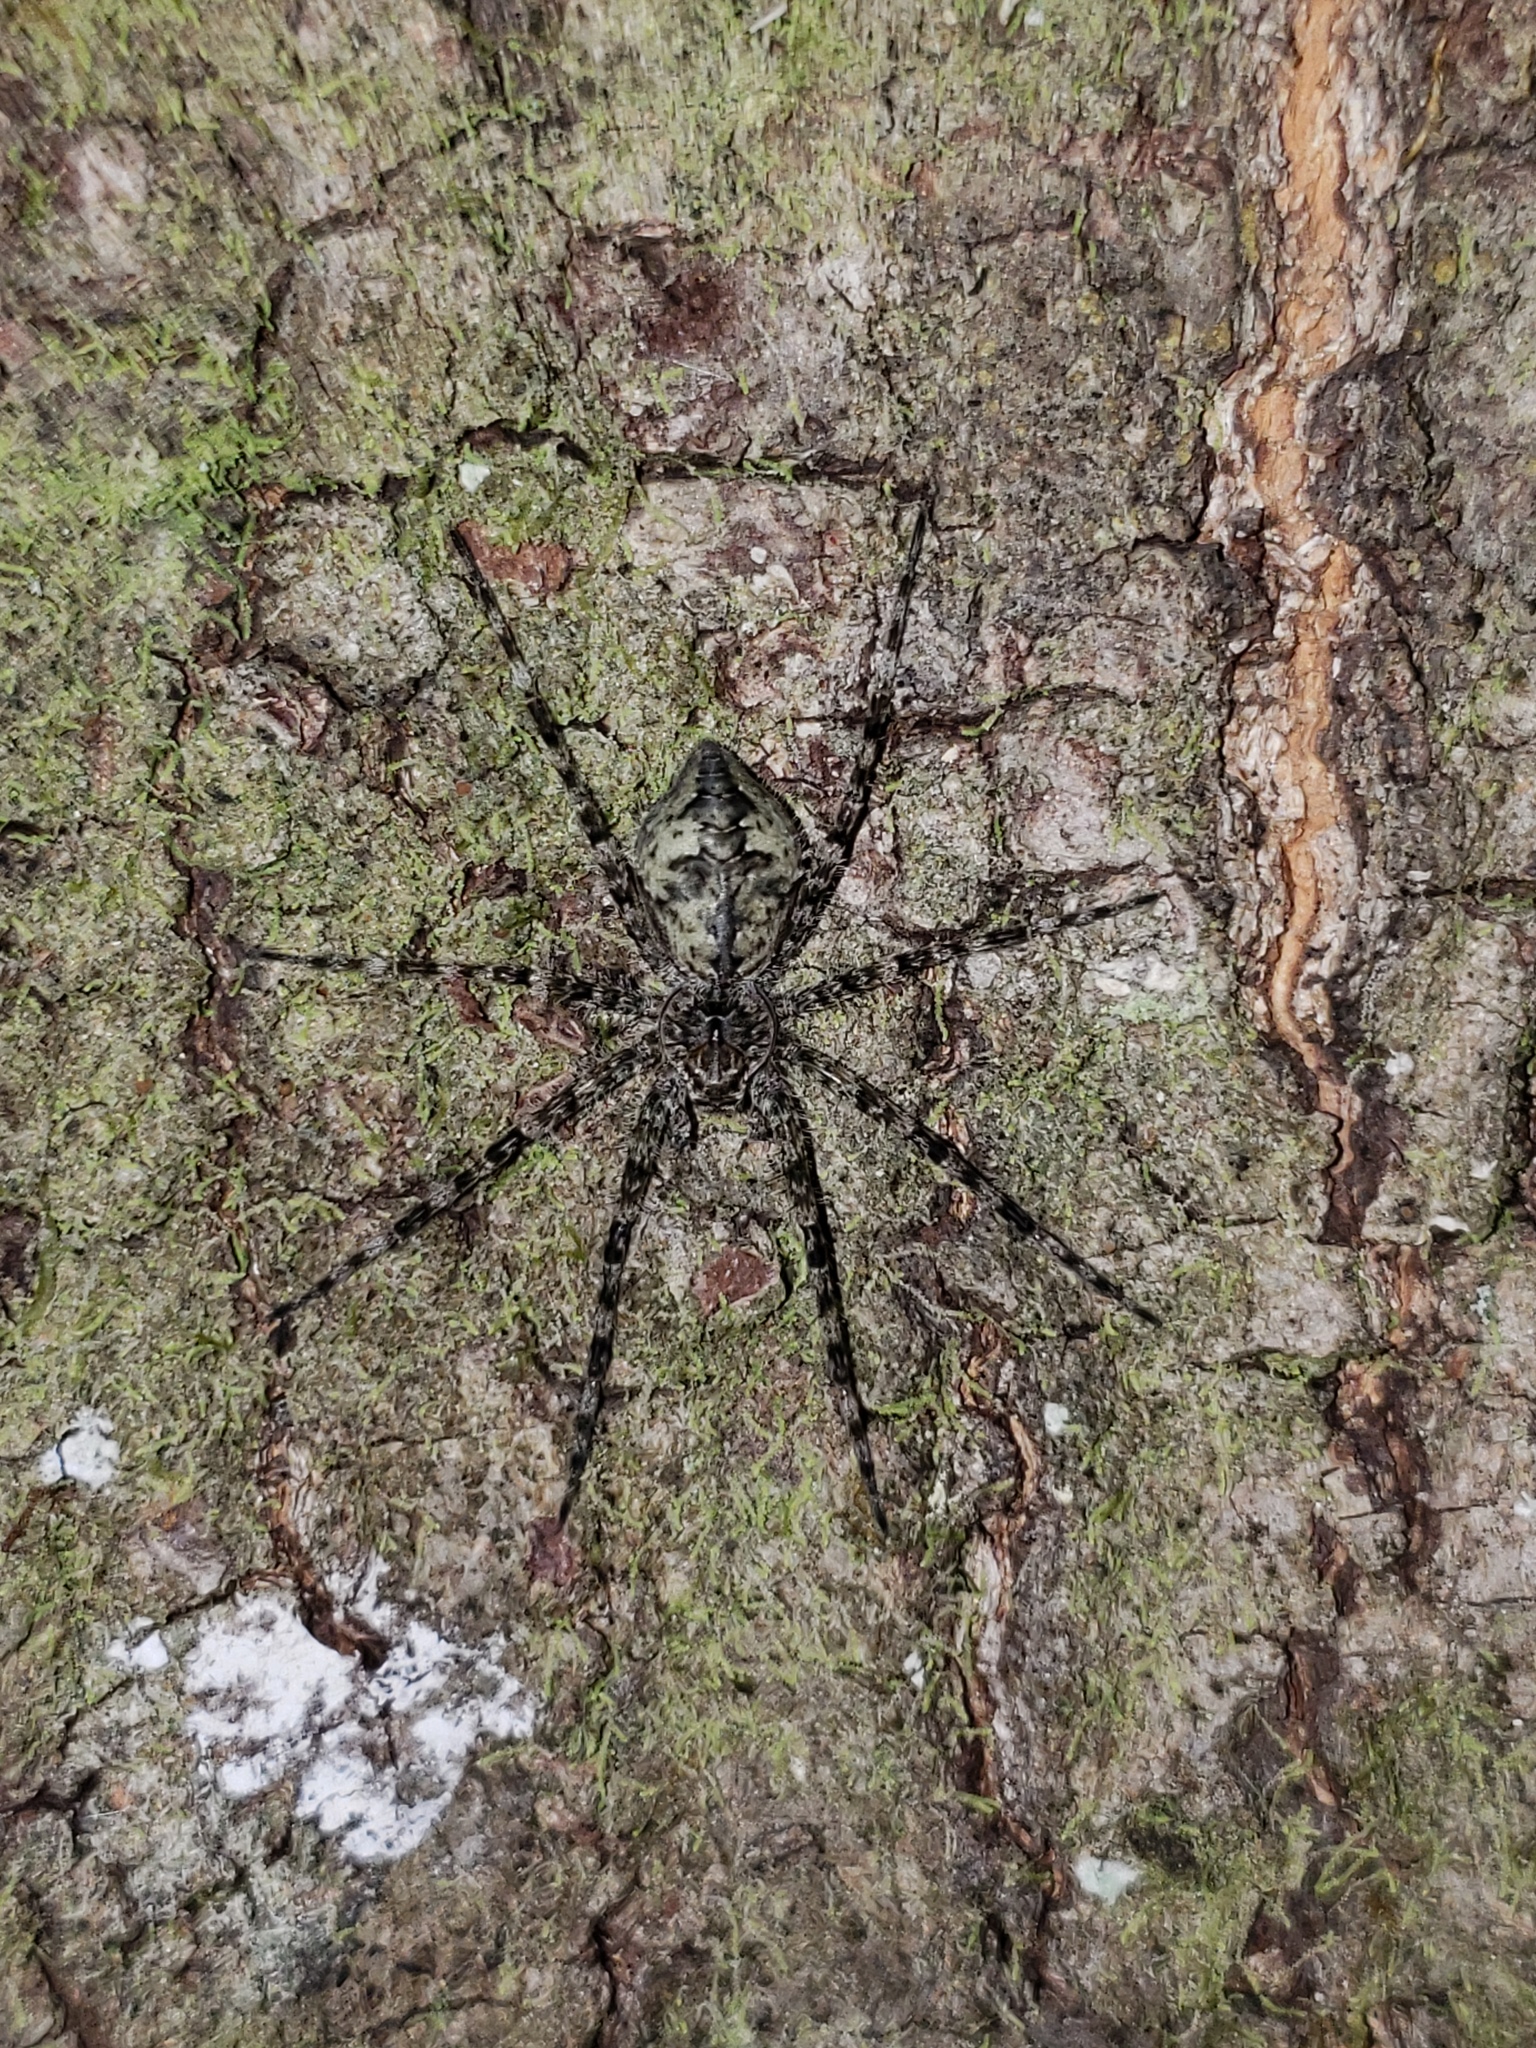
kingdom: Animalia
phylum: Arthropoda
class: Arachnida
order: Araneae
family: Pisauridae
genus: Dolomedes
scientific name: Dolomedes albineus
